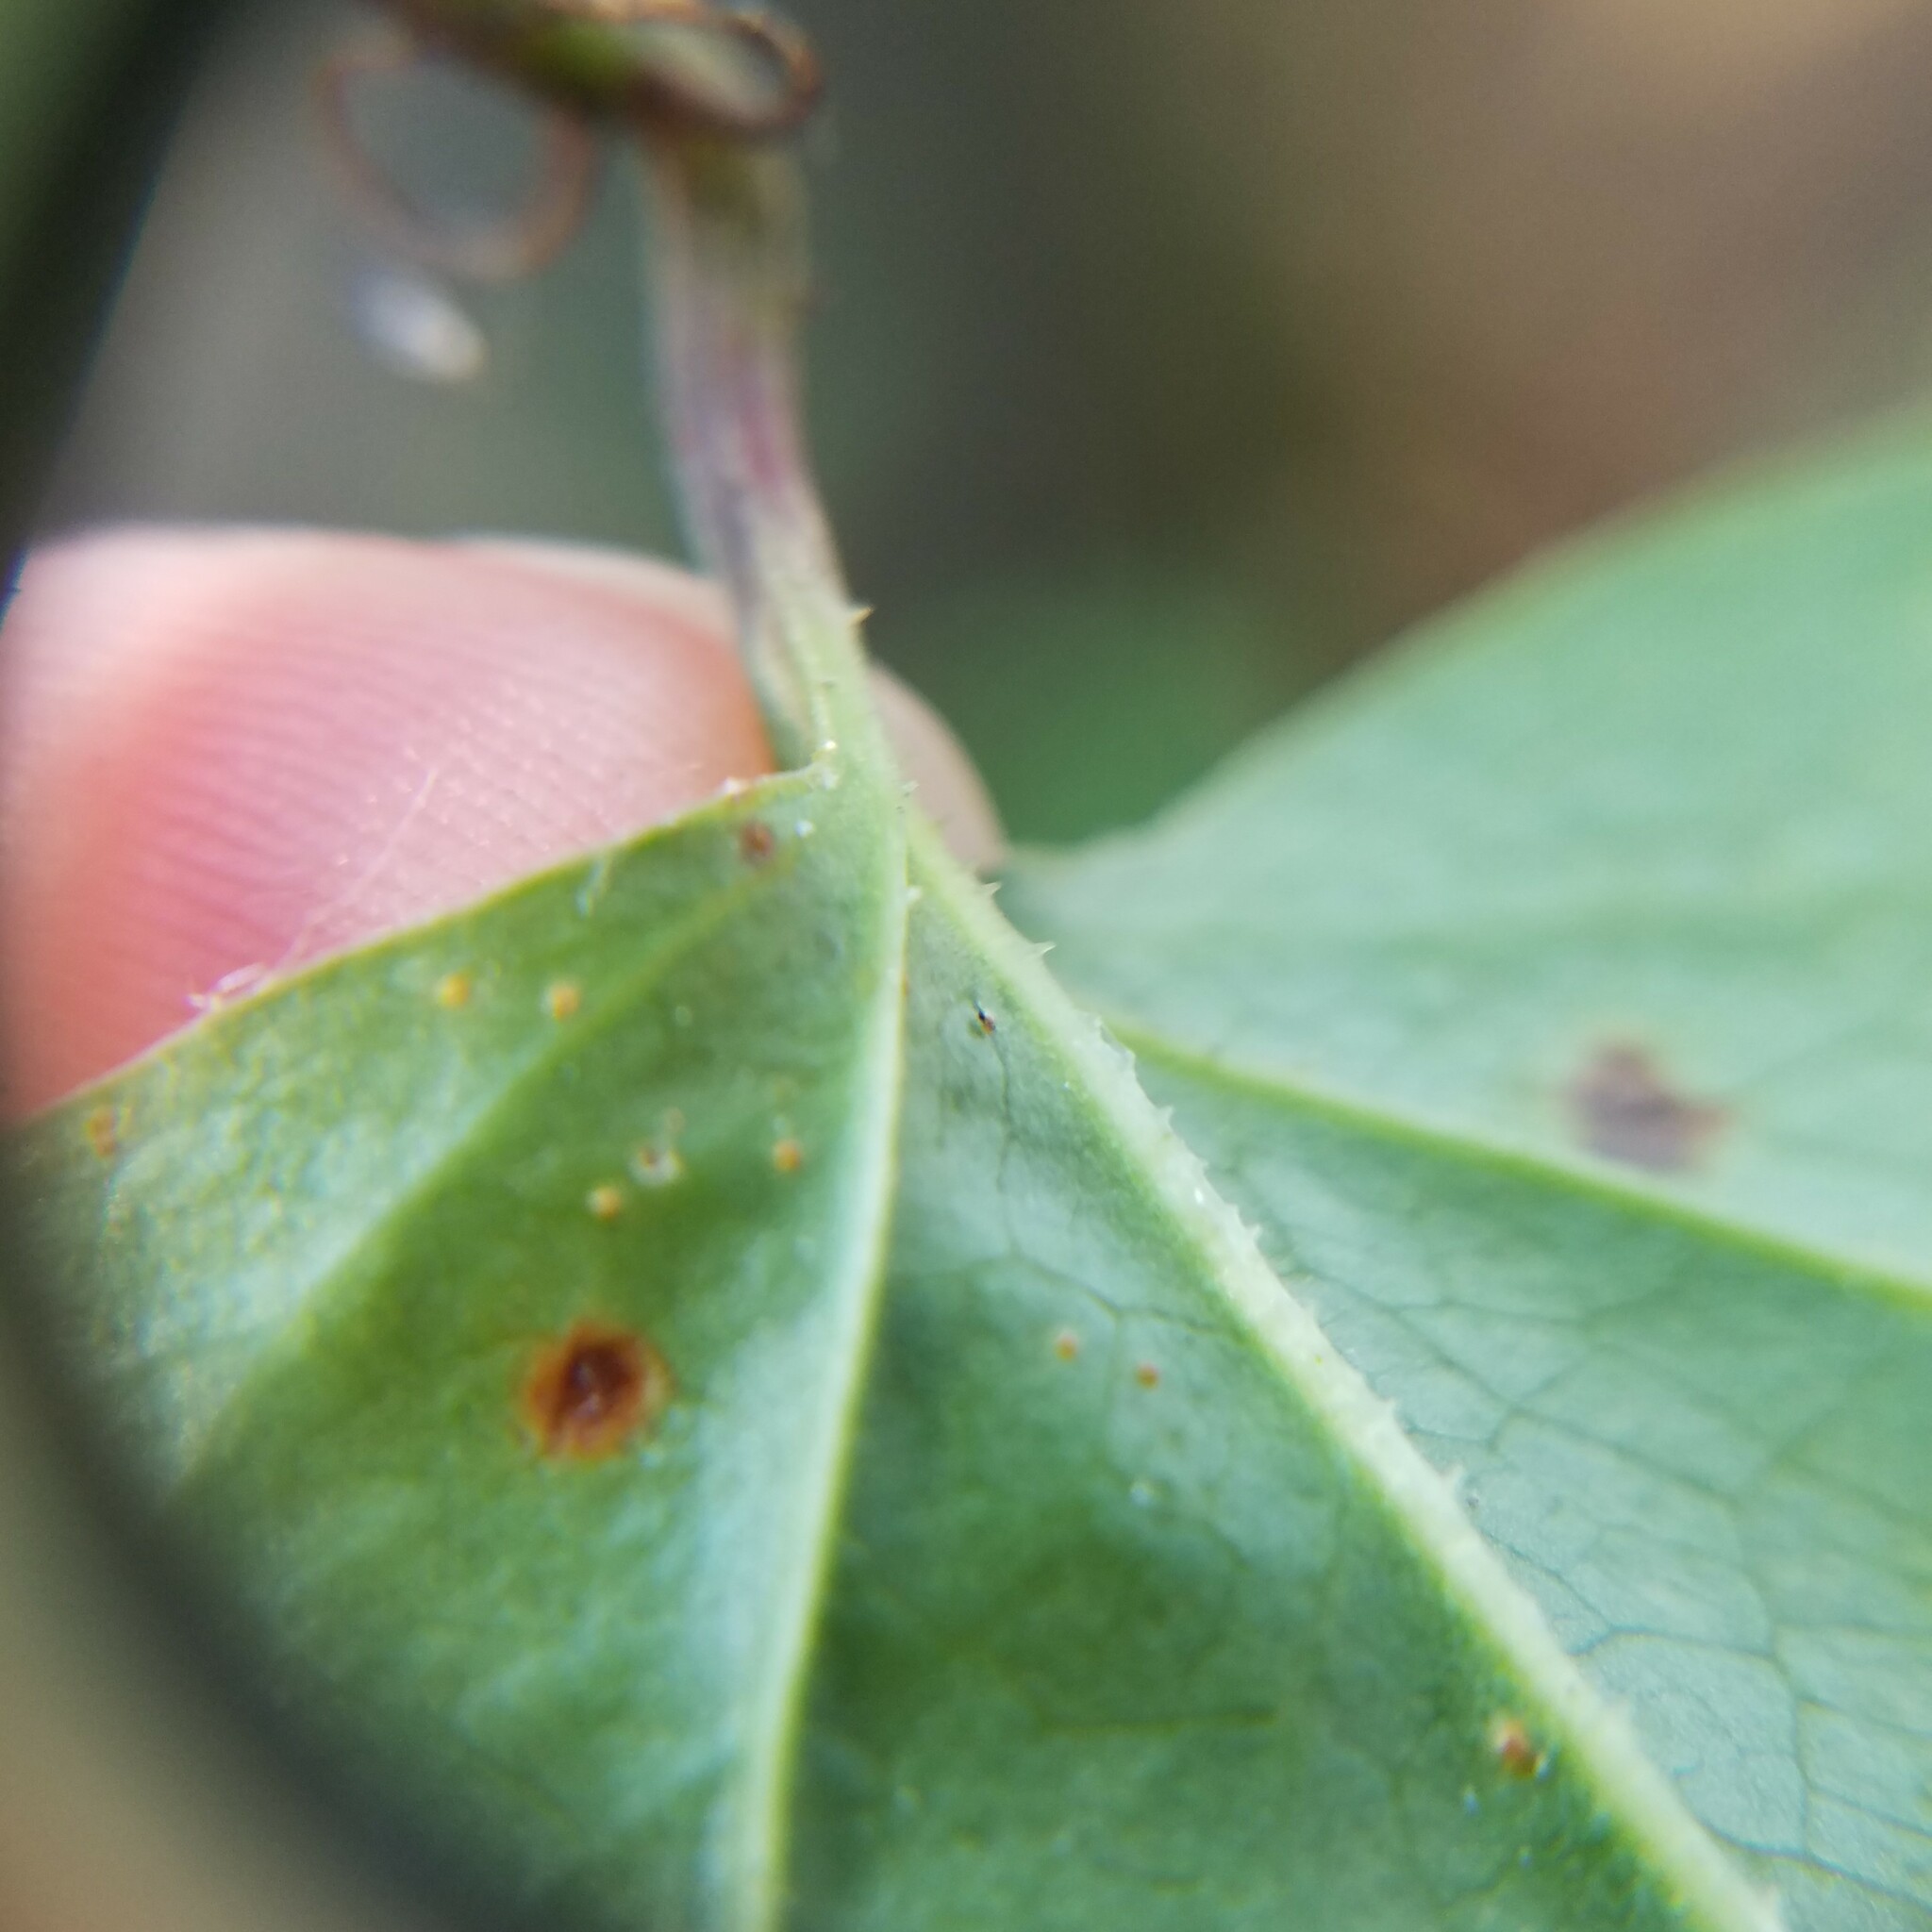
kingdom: Plantae
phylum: Tracheophyta
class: Liliopsida
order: Liliales
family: Smilacaceae
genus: Smilax
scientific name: Smilax rotundifolia
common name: Bullbriar
